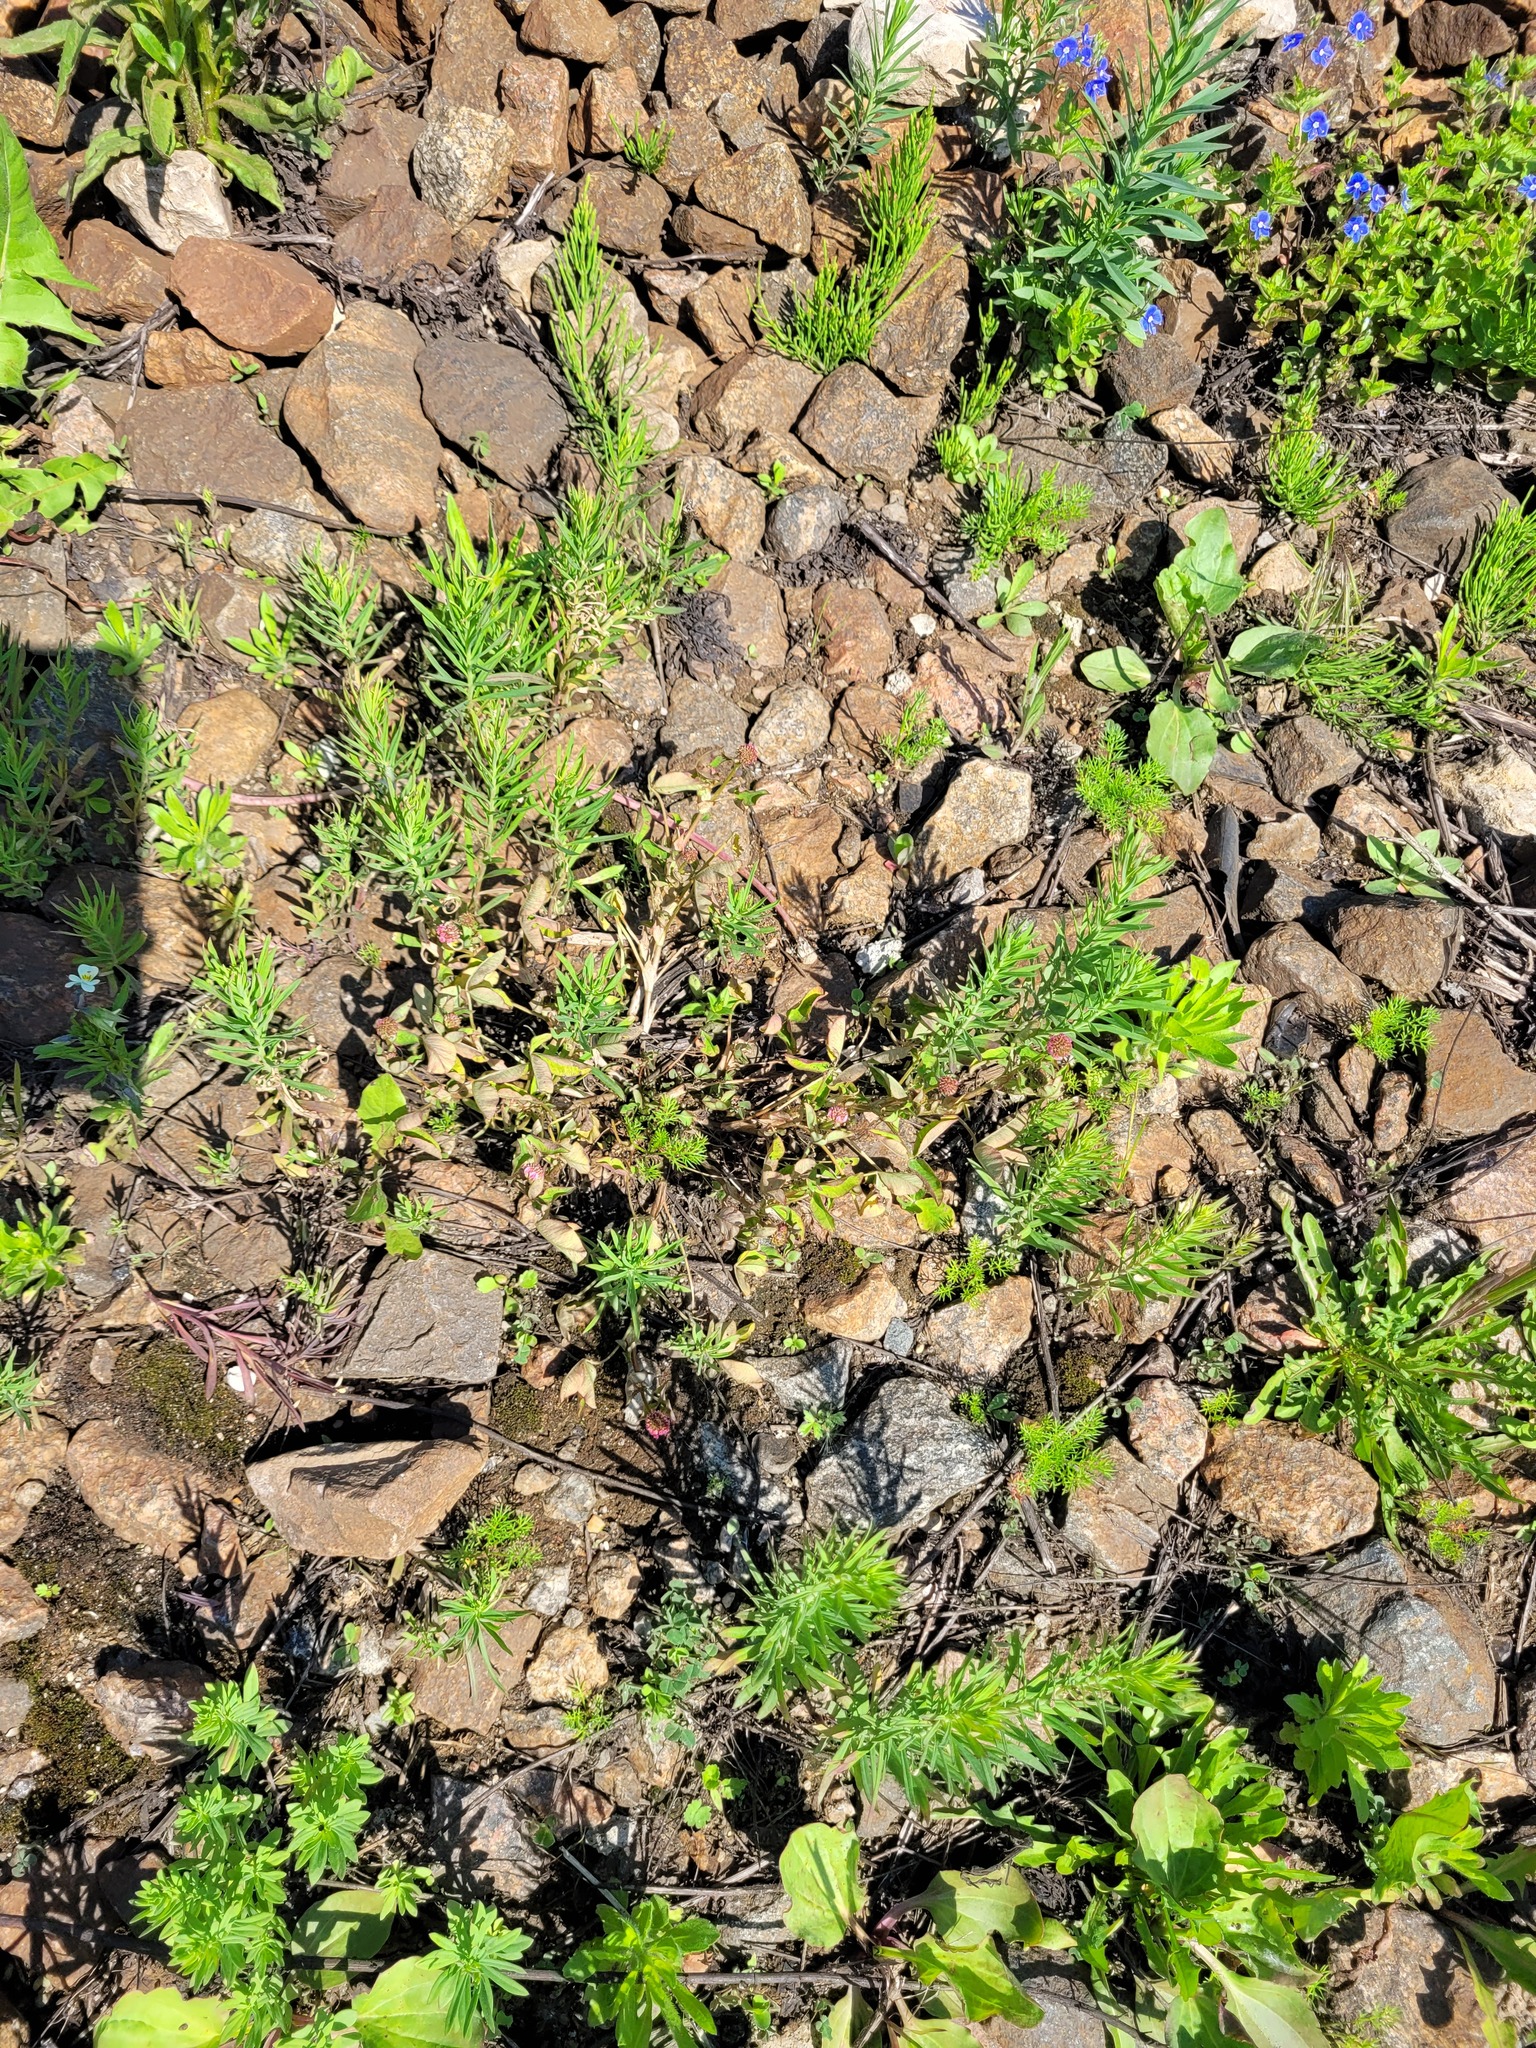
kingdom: Plantae
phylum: Tracheophyta
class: Magnoliopsida
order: Lamiales
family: Plantaginaceae
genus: Linaria
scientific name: Linaria vulgaris
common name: Butter and eggs
